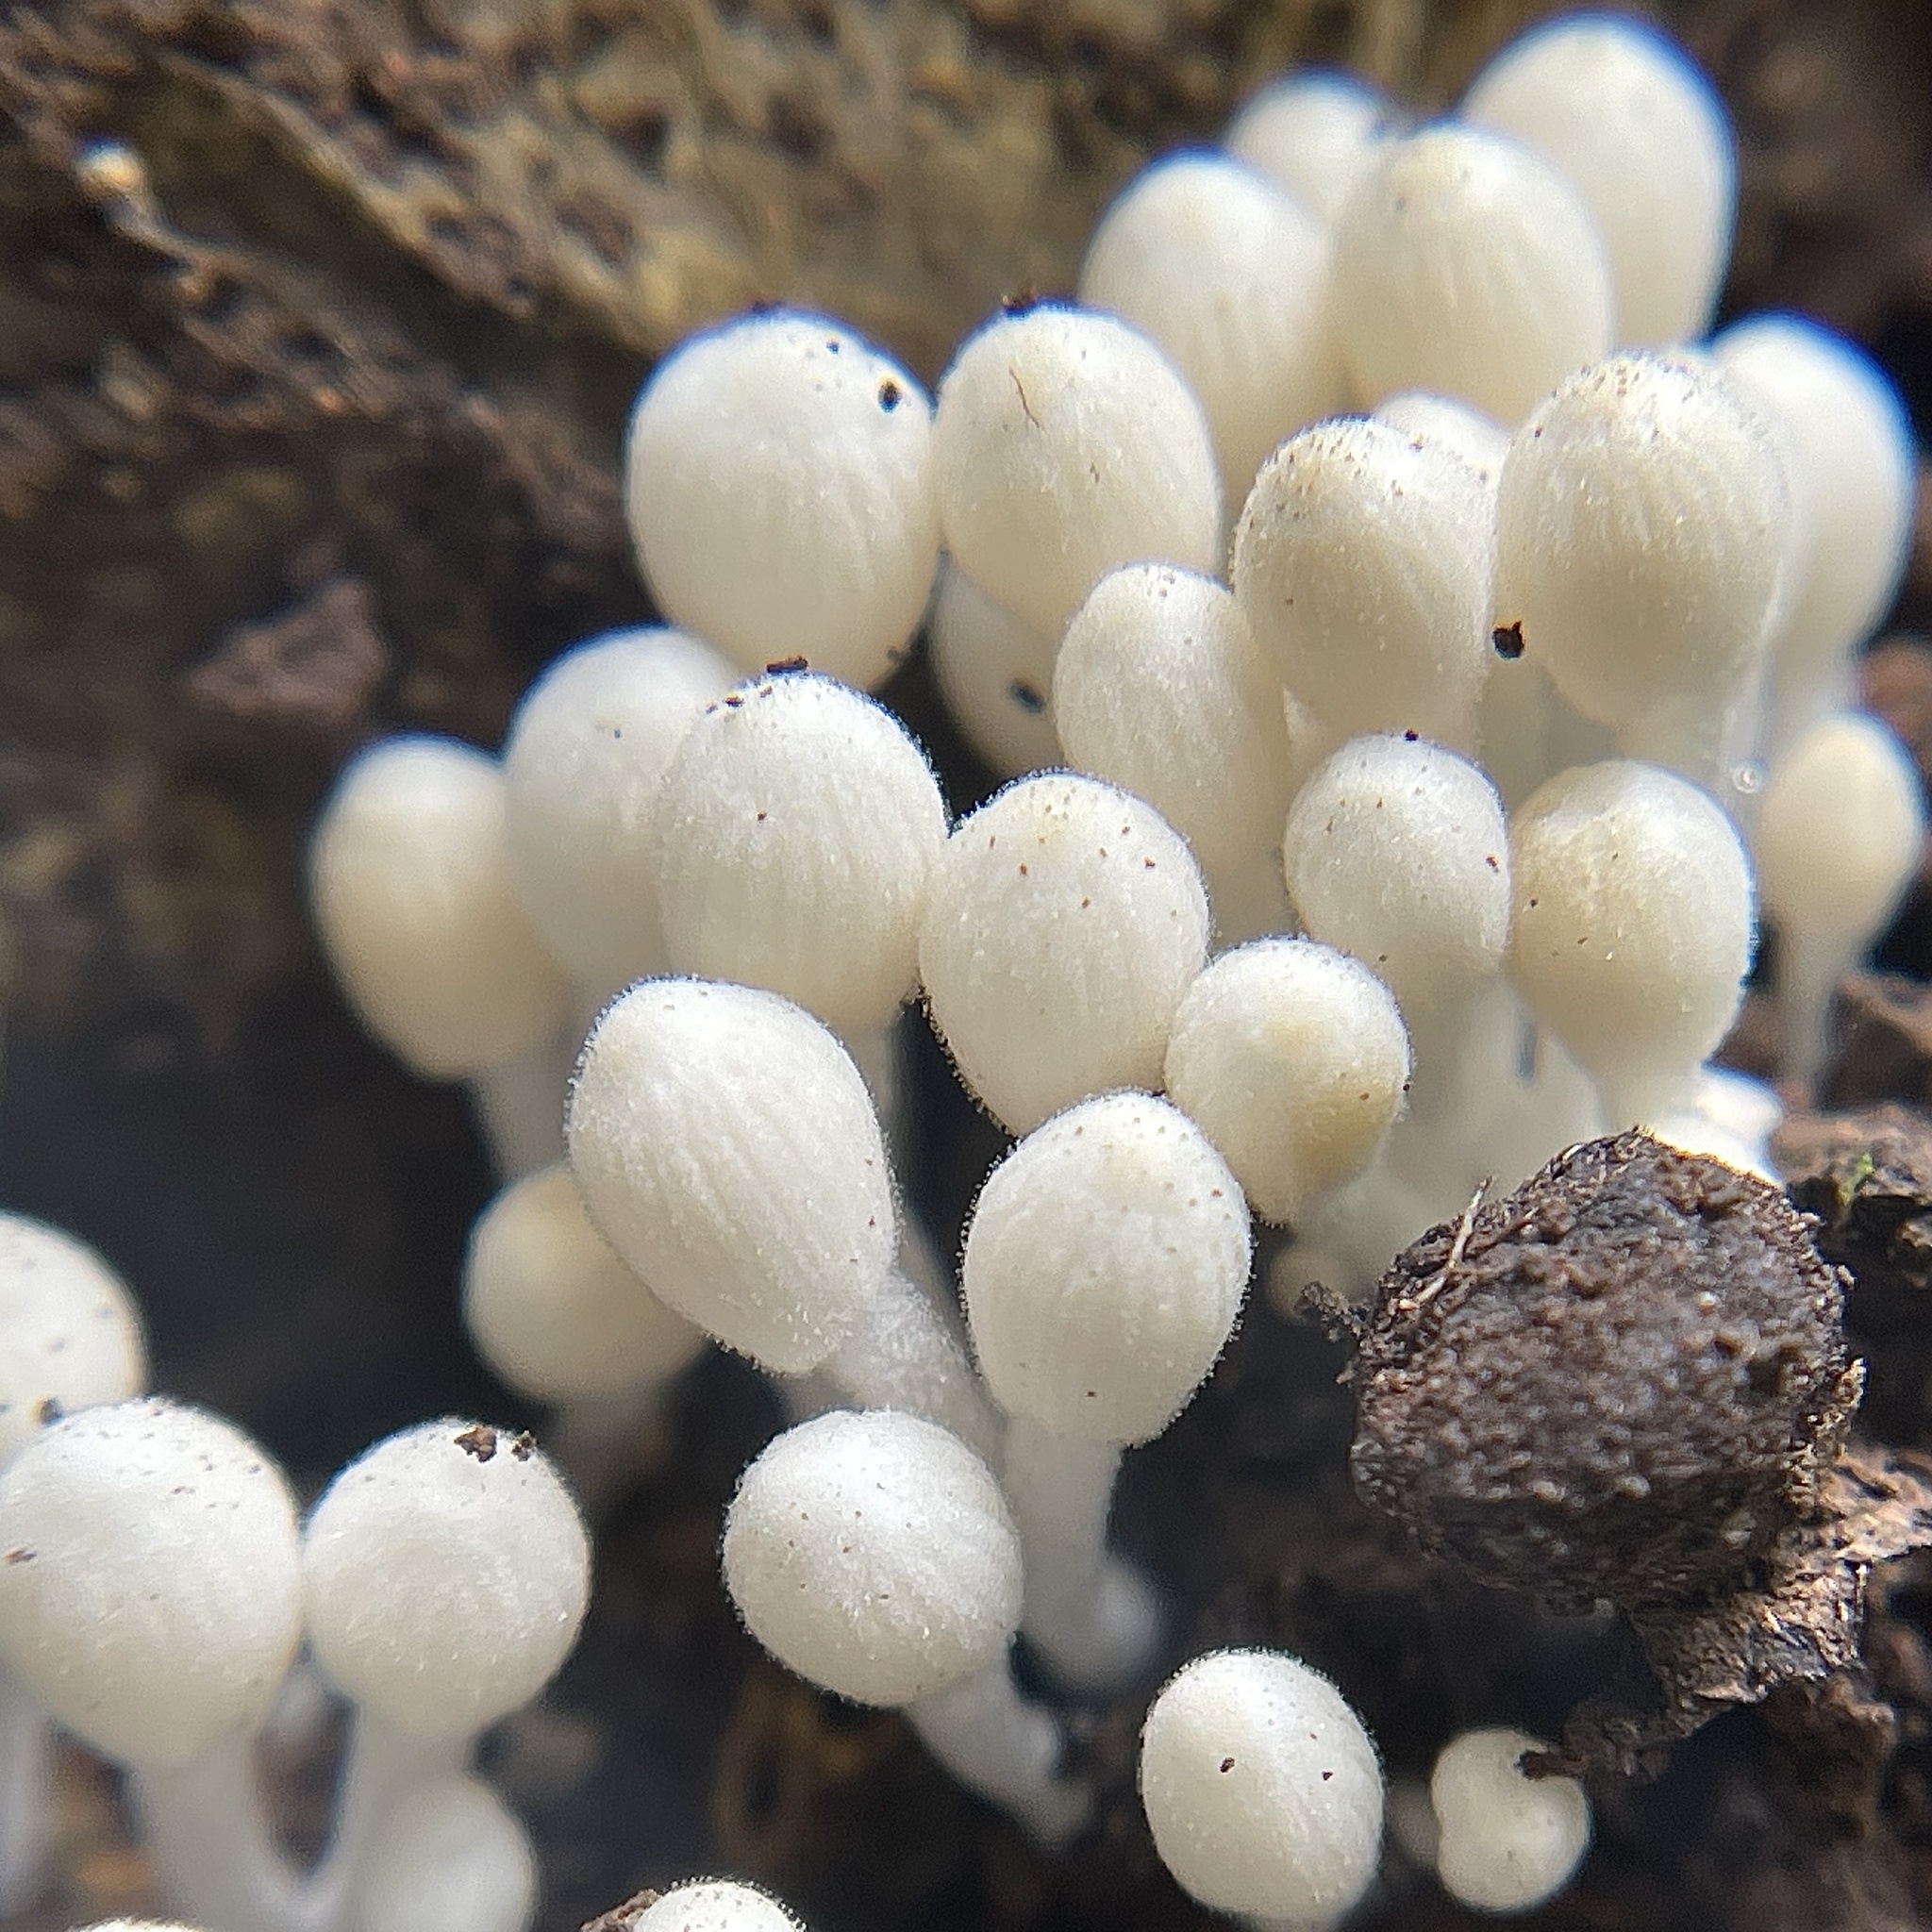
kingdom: Fungi
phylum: Basidiomycota
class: Agaricomycetes
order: Agaricales
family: Psathyrellaceae
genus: Coprinellus
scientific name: Coprinellus disseminatus
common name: Fairies' bonnets
